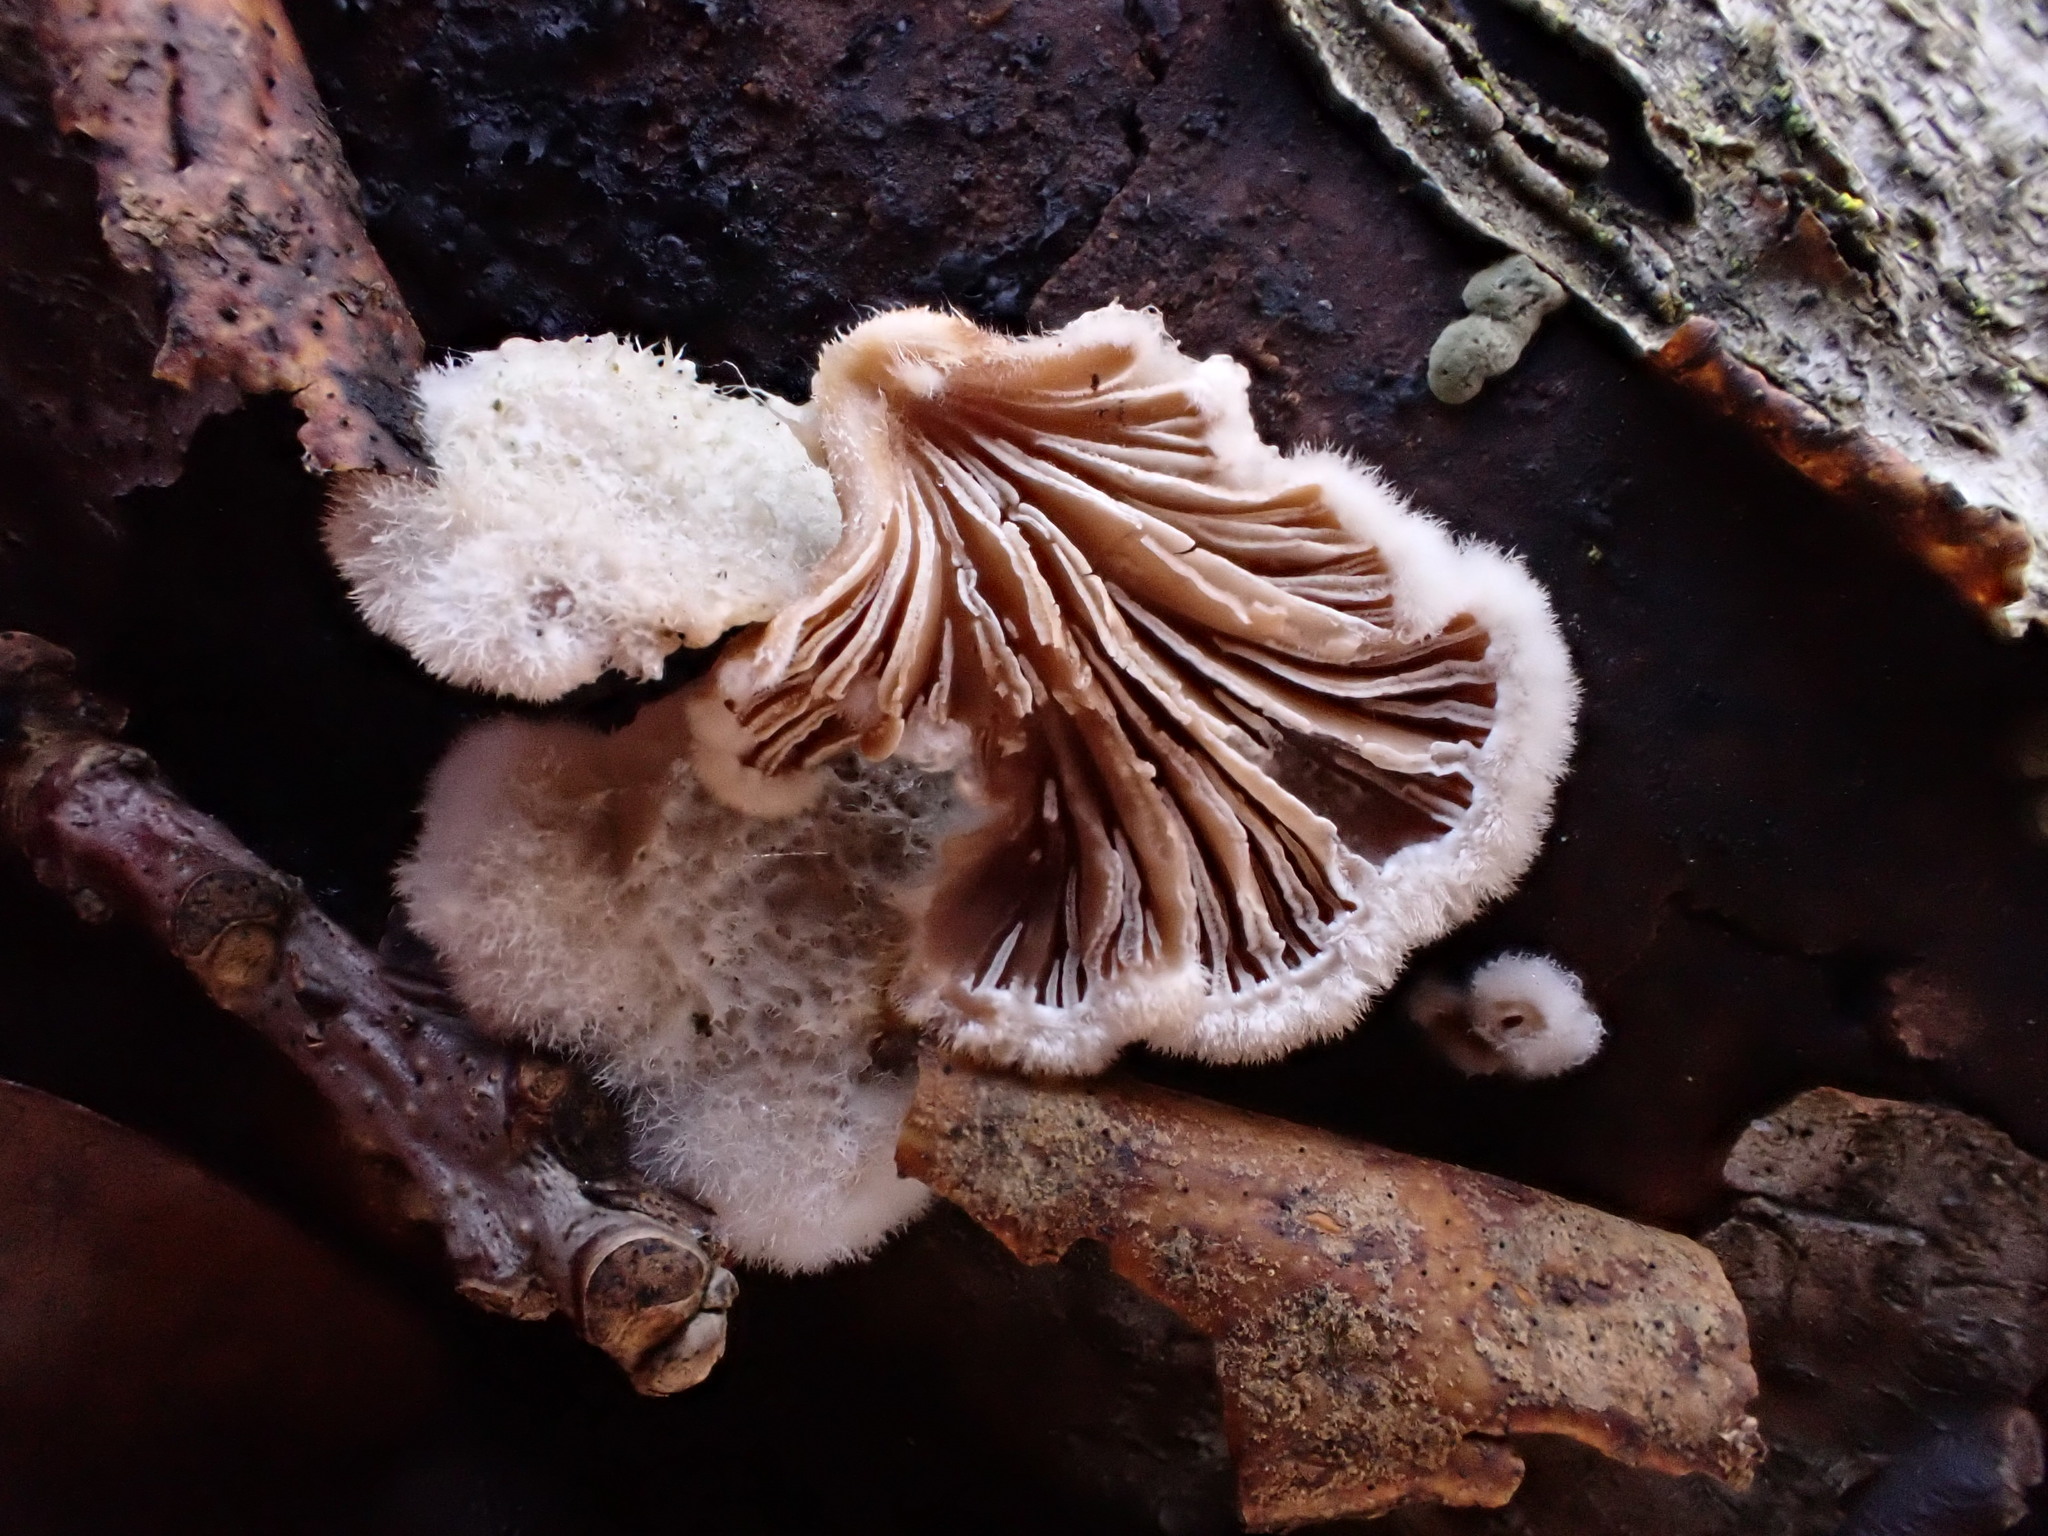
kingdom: Fungi
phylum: Basidiomycota
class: Agaricomycetes
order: Agaricales
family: Schizophyllaceae
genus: Schizophyllum
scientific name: Schizophyllum commune
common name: Common porecrust
